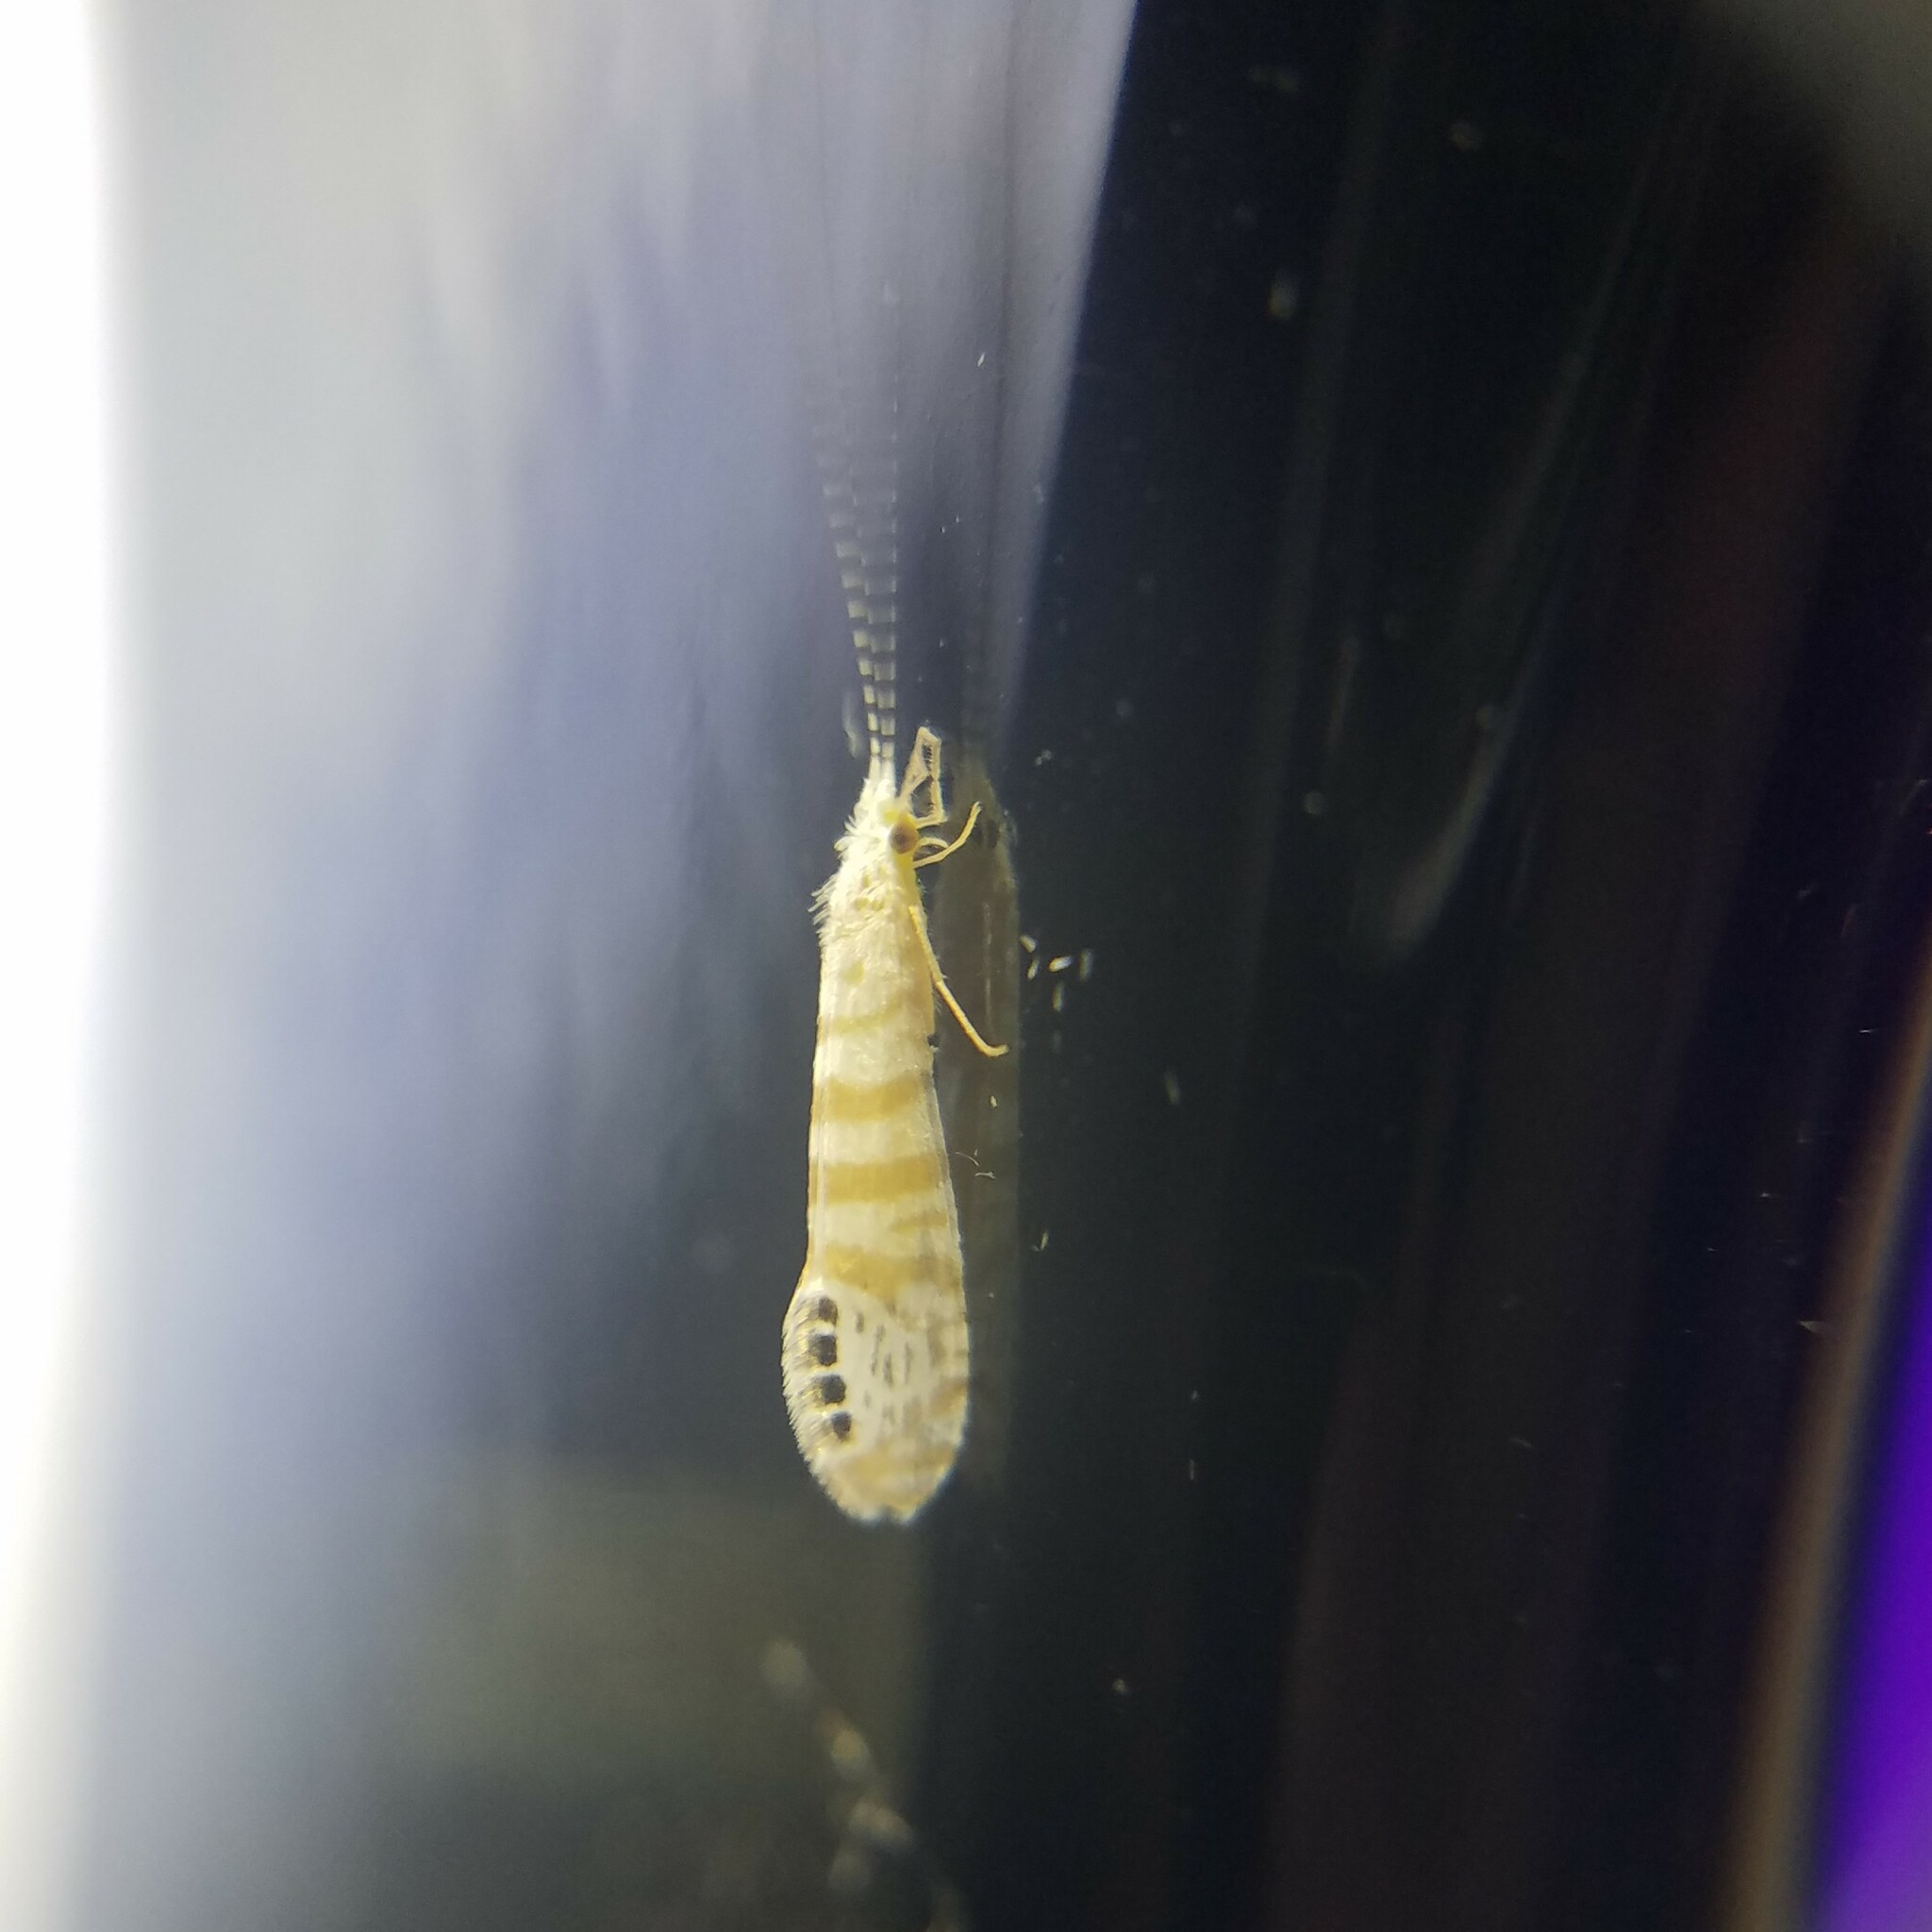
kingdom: Animalia
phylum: Arthropoda
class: Insecta
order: Trichoptera
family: Leptoceridae
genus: Nectopsyche
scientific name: Nectopsyche exquisita
